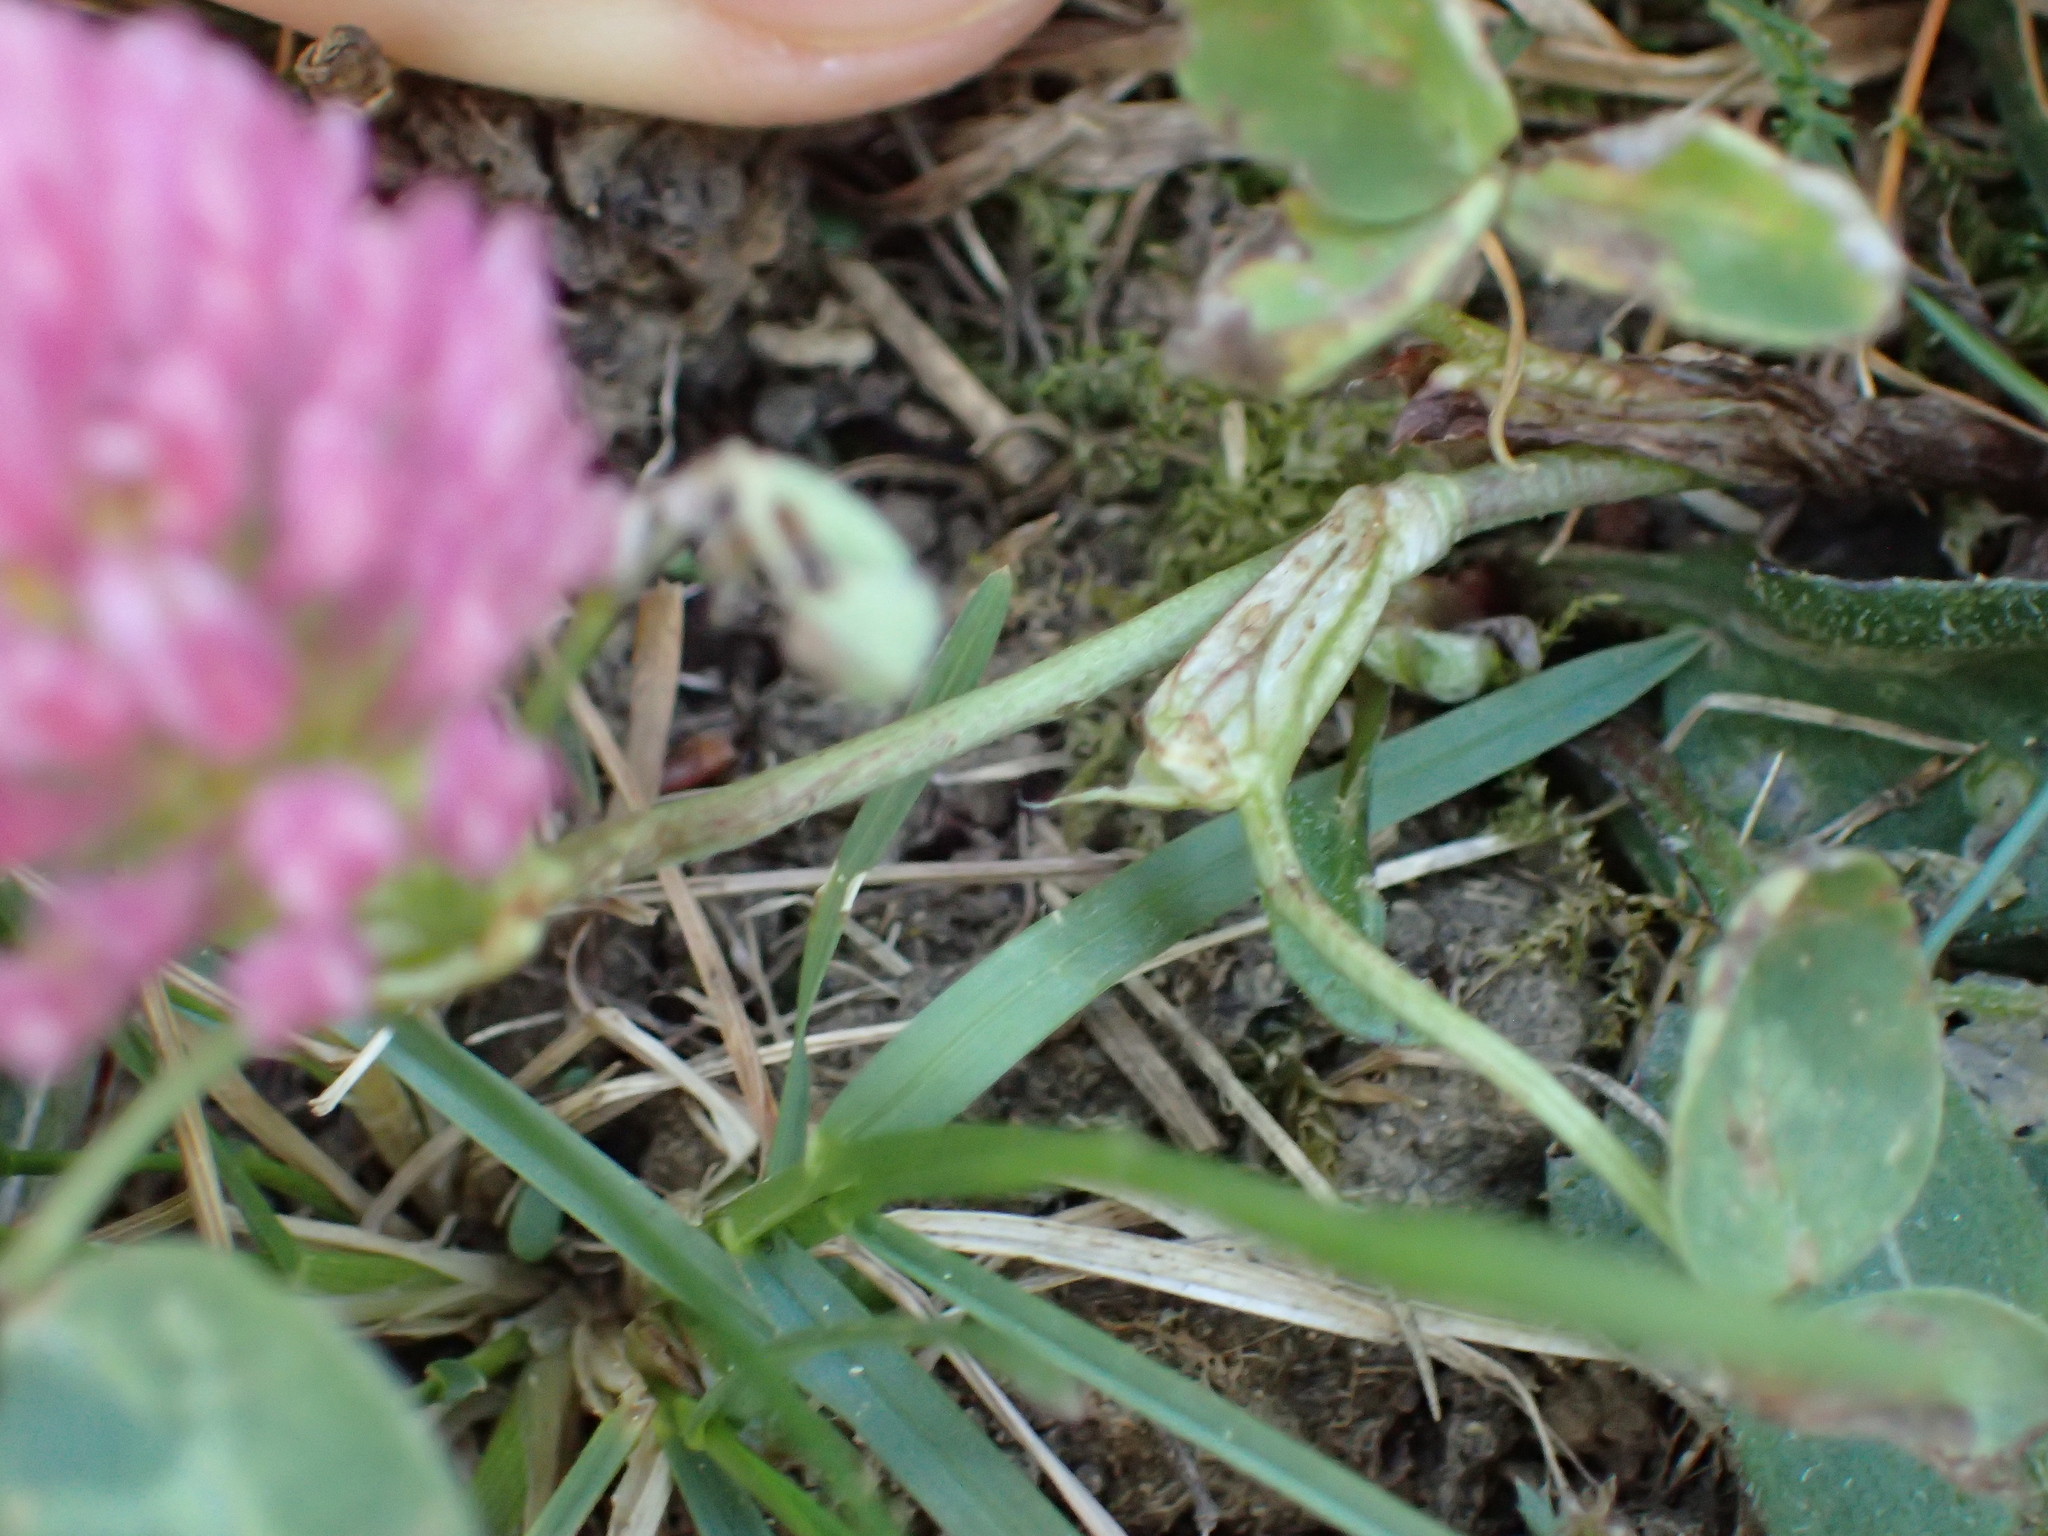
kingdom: Plantae
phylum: Tracheophyta
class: Magnoliopsida
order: Fabales
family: Fabaceae
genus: Trifolium
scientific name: Trifolium pratense
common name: Red clover
